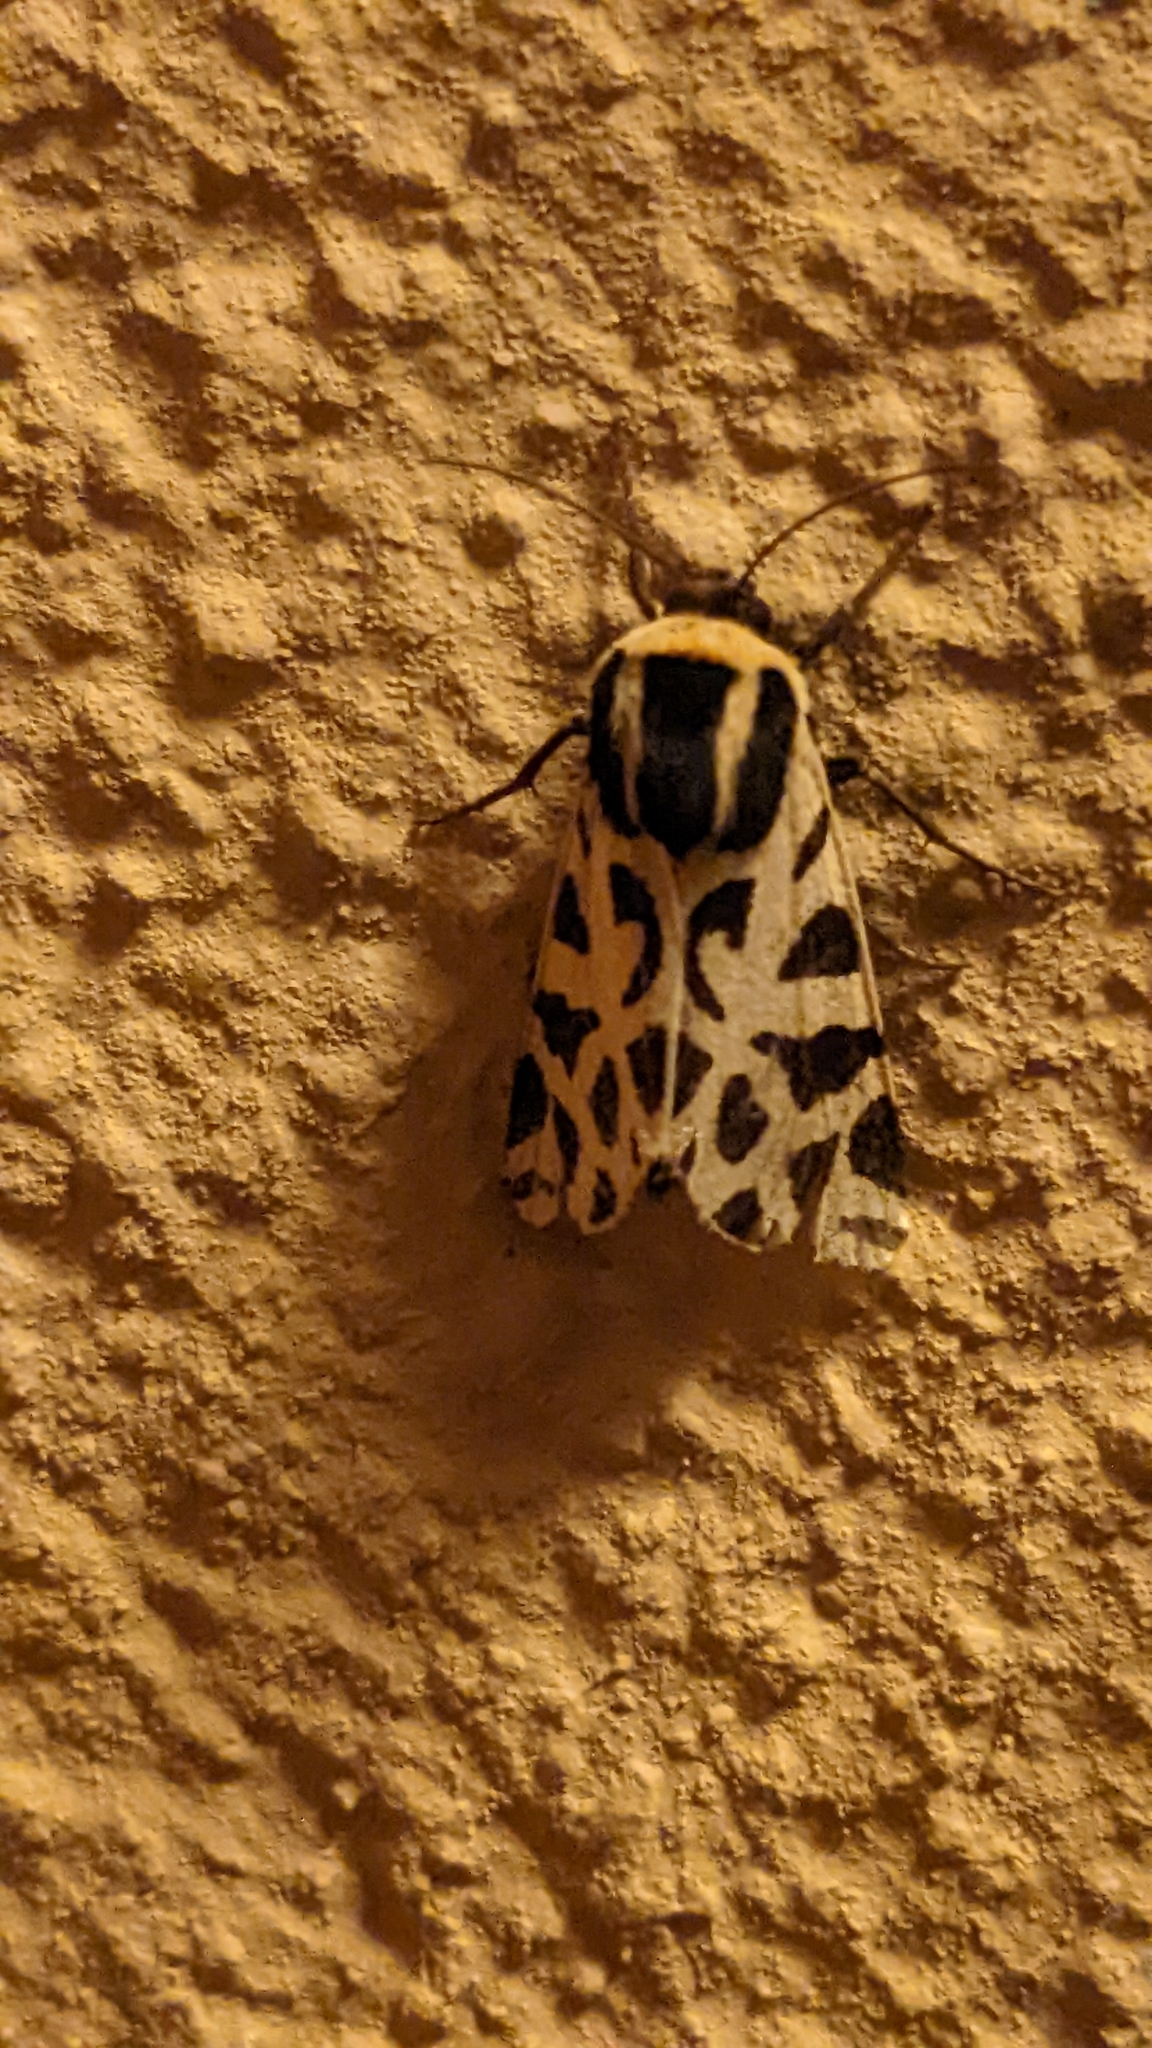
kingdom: Animalia
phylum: Arthropoda
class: Insecta
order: Lepidoptera
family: Erebidae
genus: Cymbalophora
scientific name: Cymbalophora pudica
